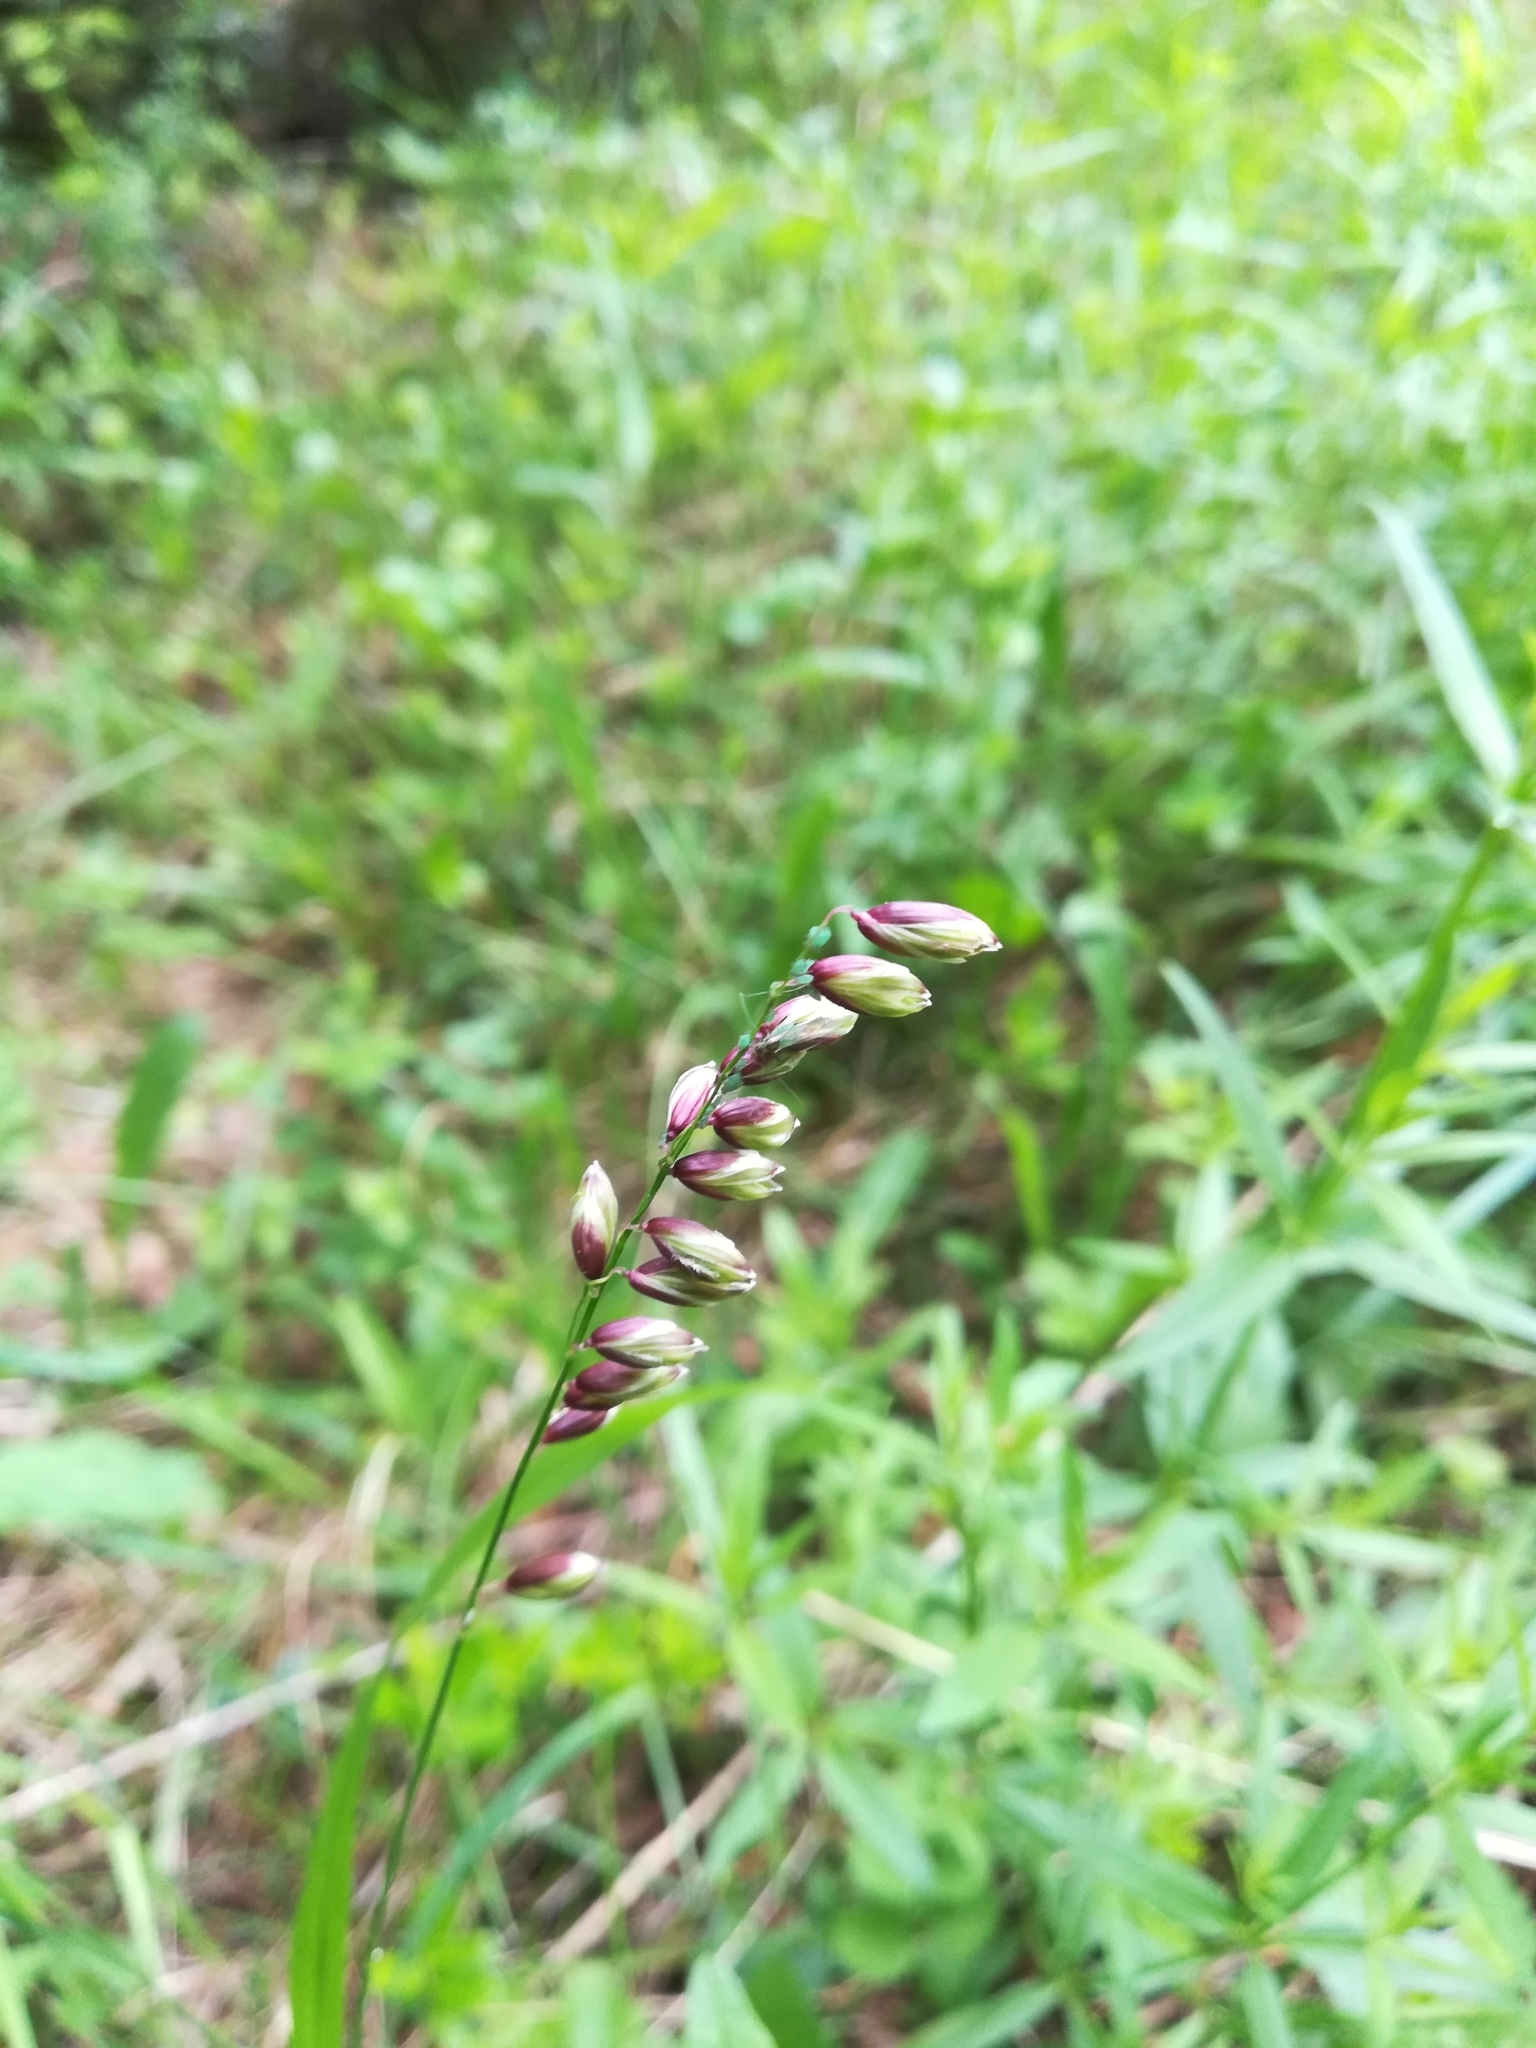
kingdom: Plantae
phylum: Tracheophyta
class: Liliopsida
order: Poales
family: Poaceae
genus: Melica
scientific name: Melica nutans
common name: Mountain melick
